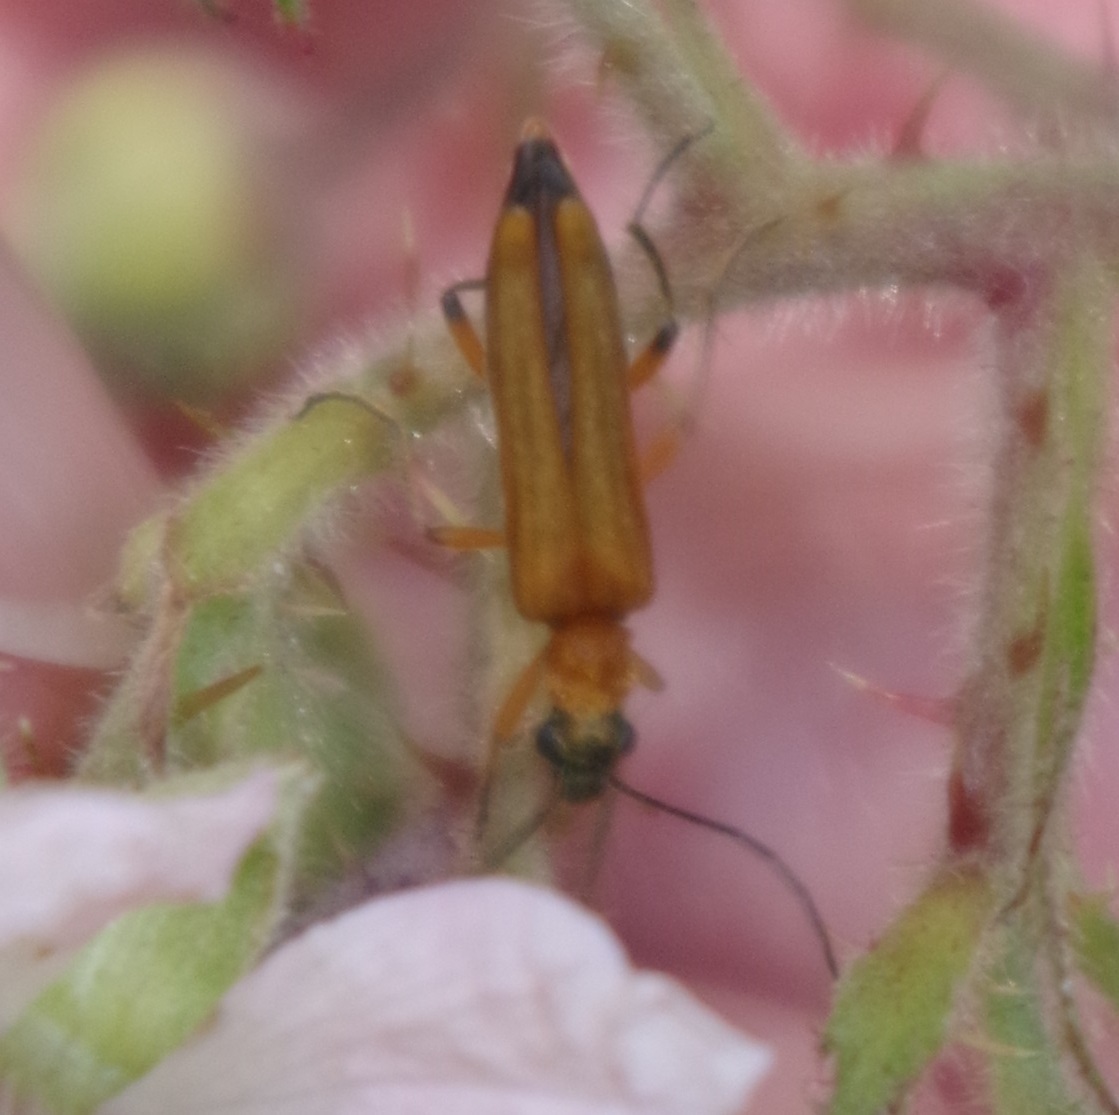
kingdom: Animalia
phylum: Arthropoda
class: Insecta
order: Coleoptera
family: Oedemeridae
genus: Oedemera
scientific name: Oedemera podagrariae
